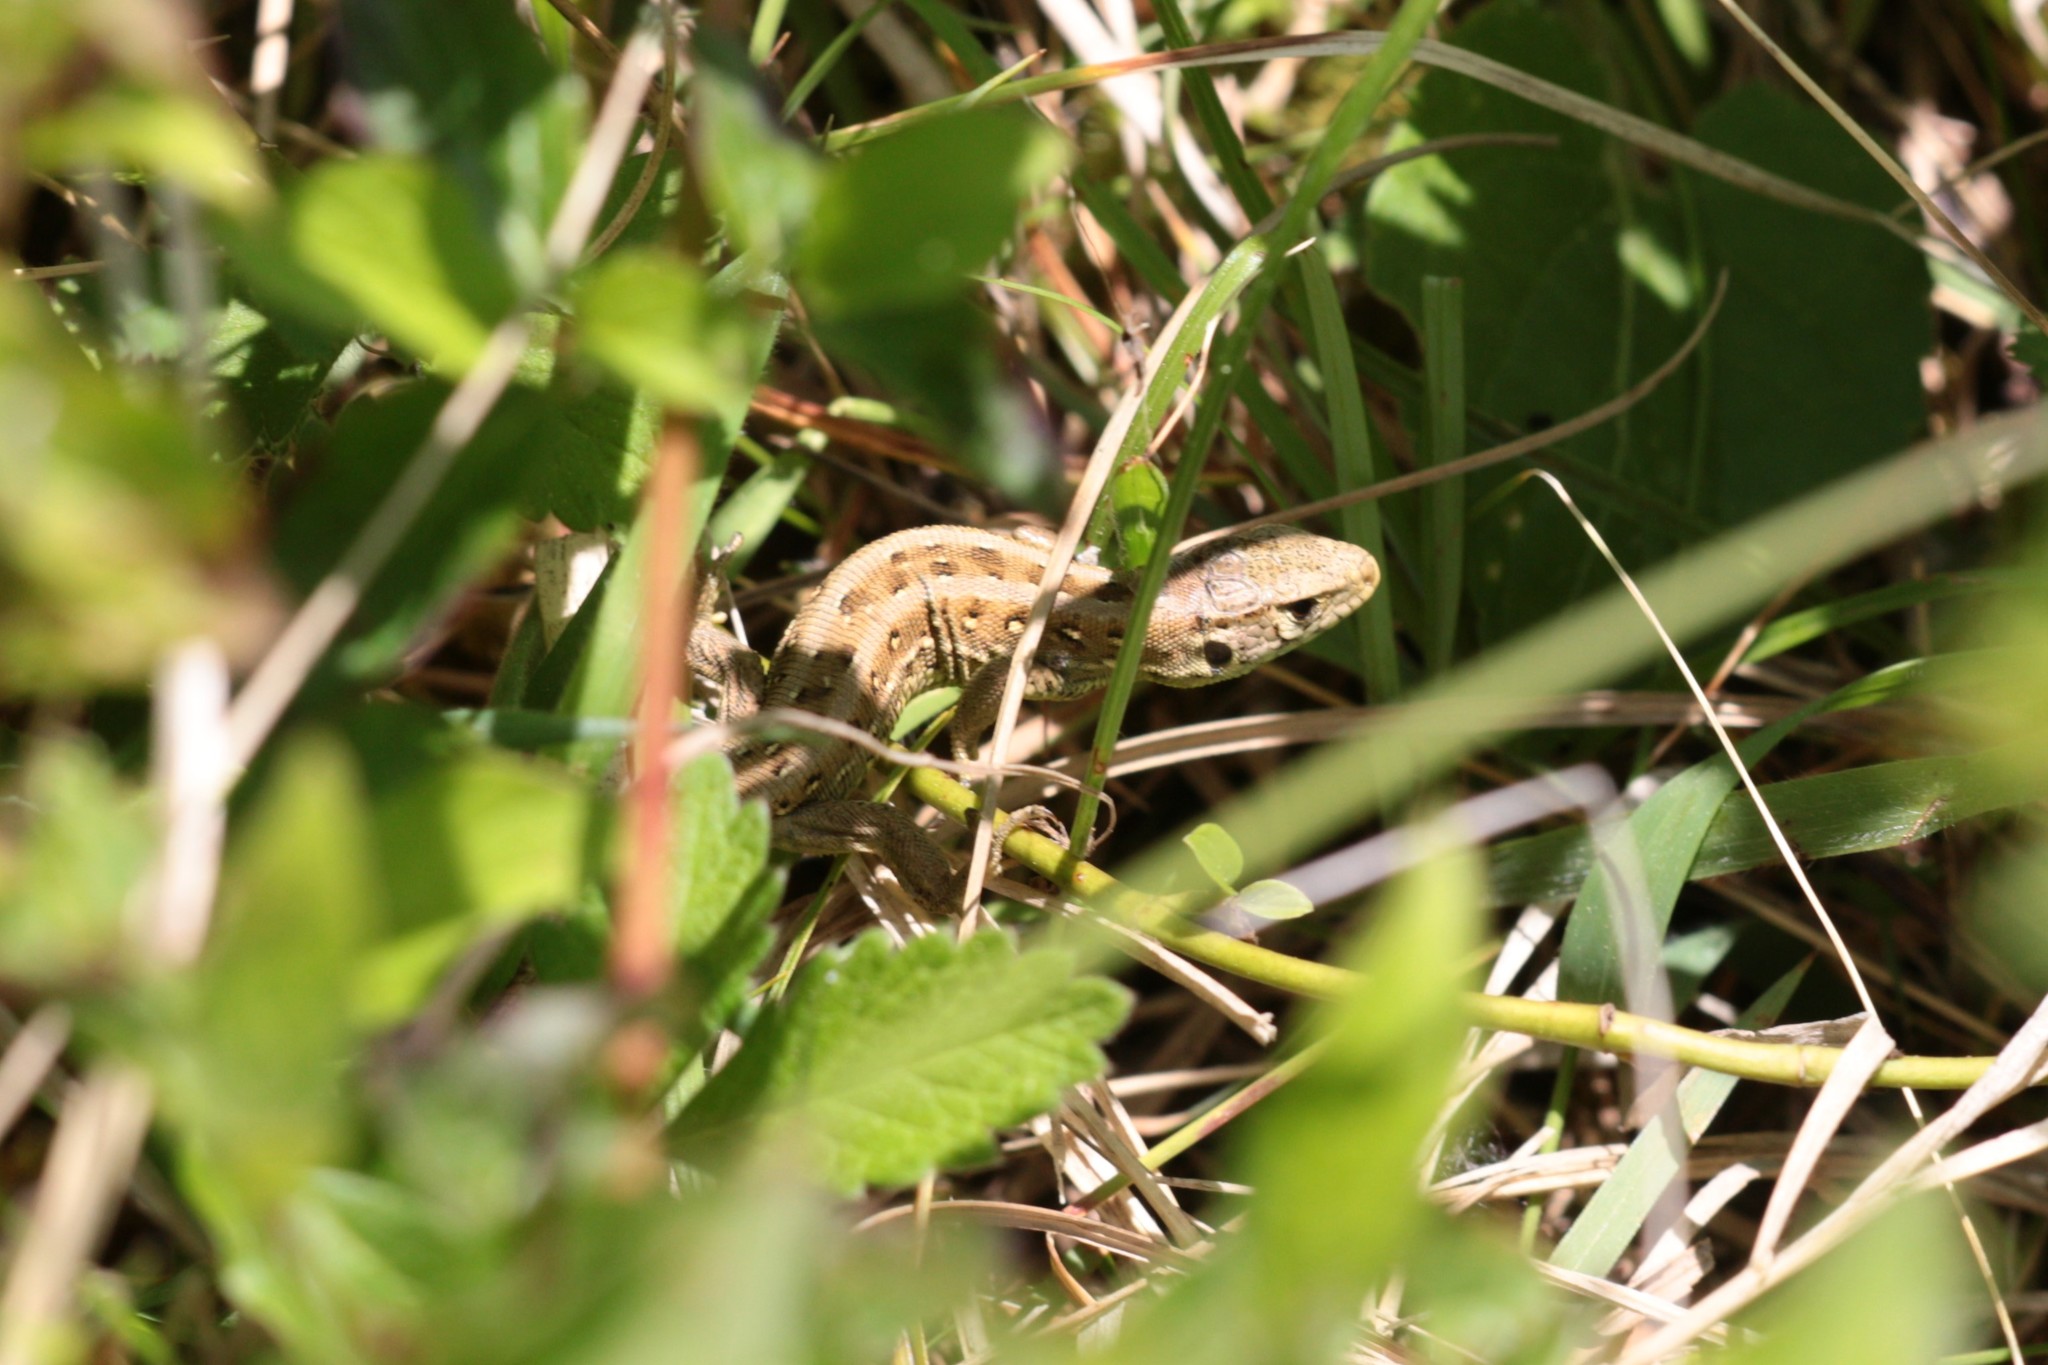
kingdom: Animalia
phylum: Chordata
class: Squamata
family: Lacertidae
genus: Lacerta
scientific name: Lacerta agilis
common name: Sand lizard
